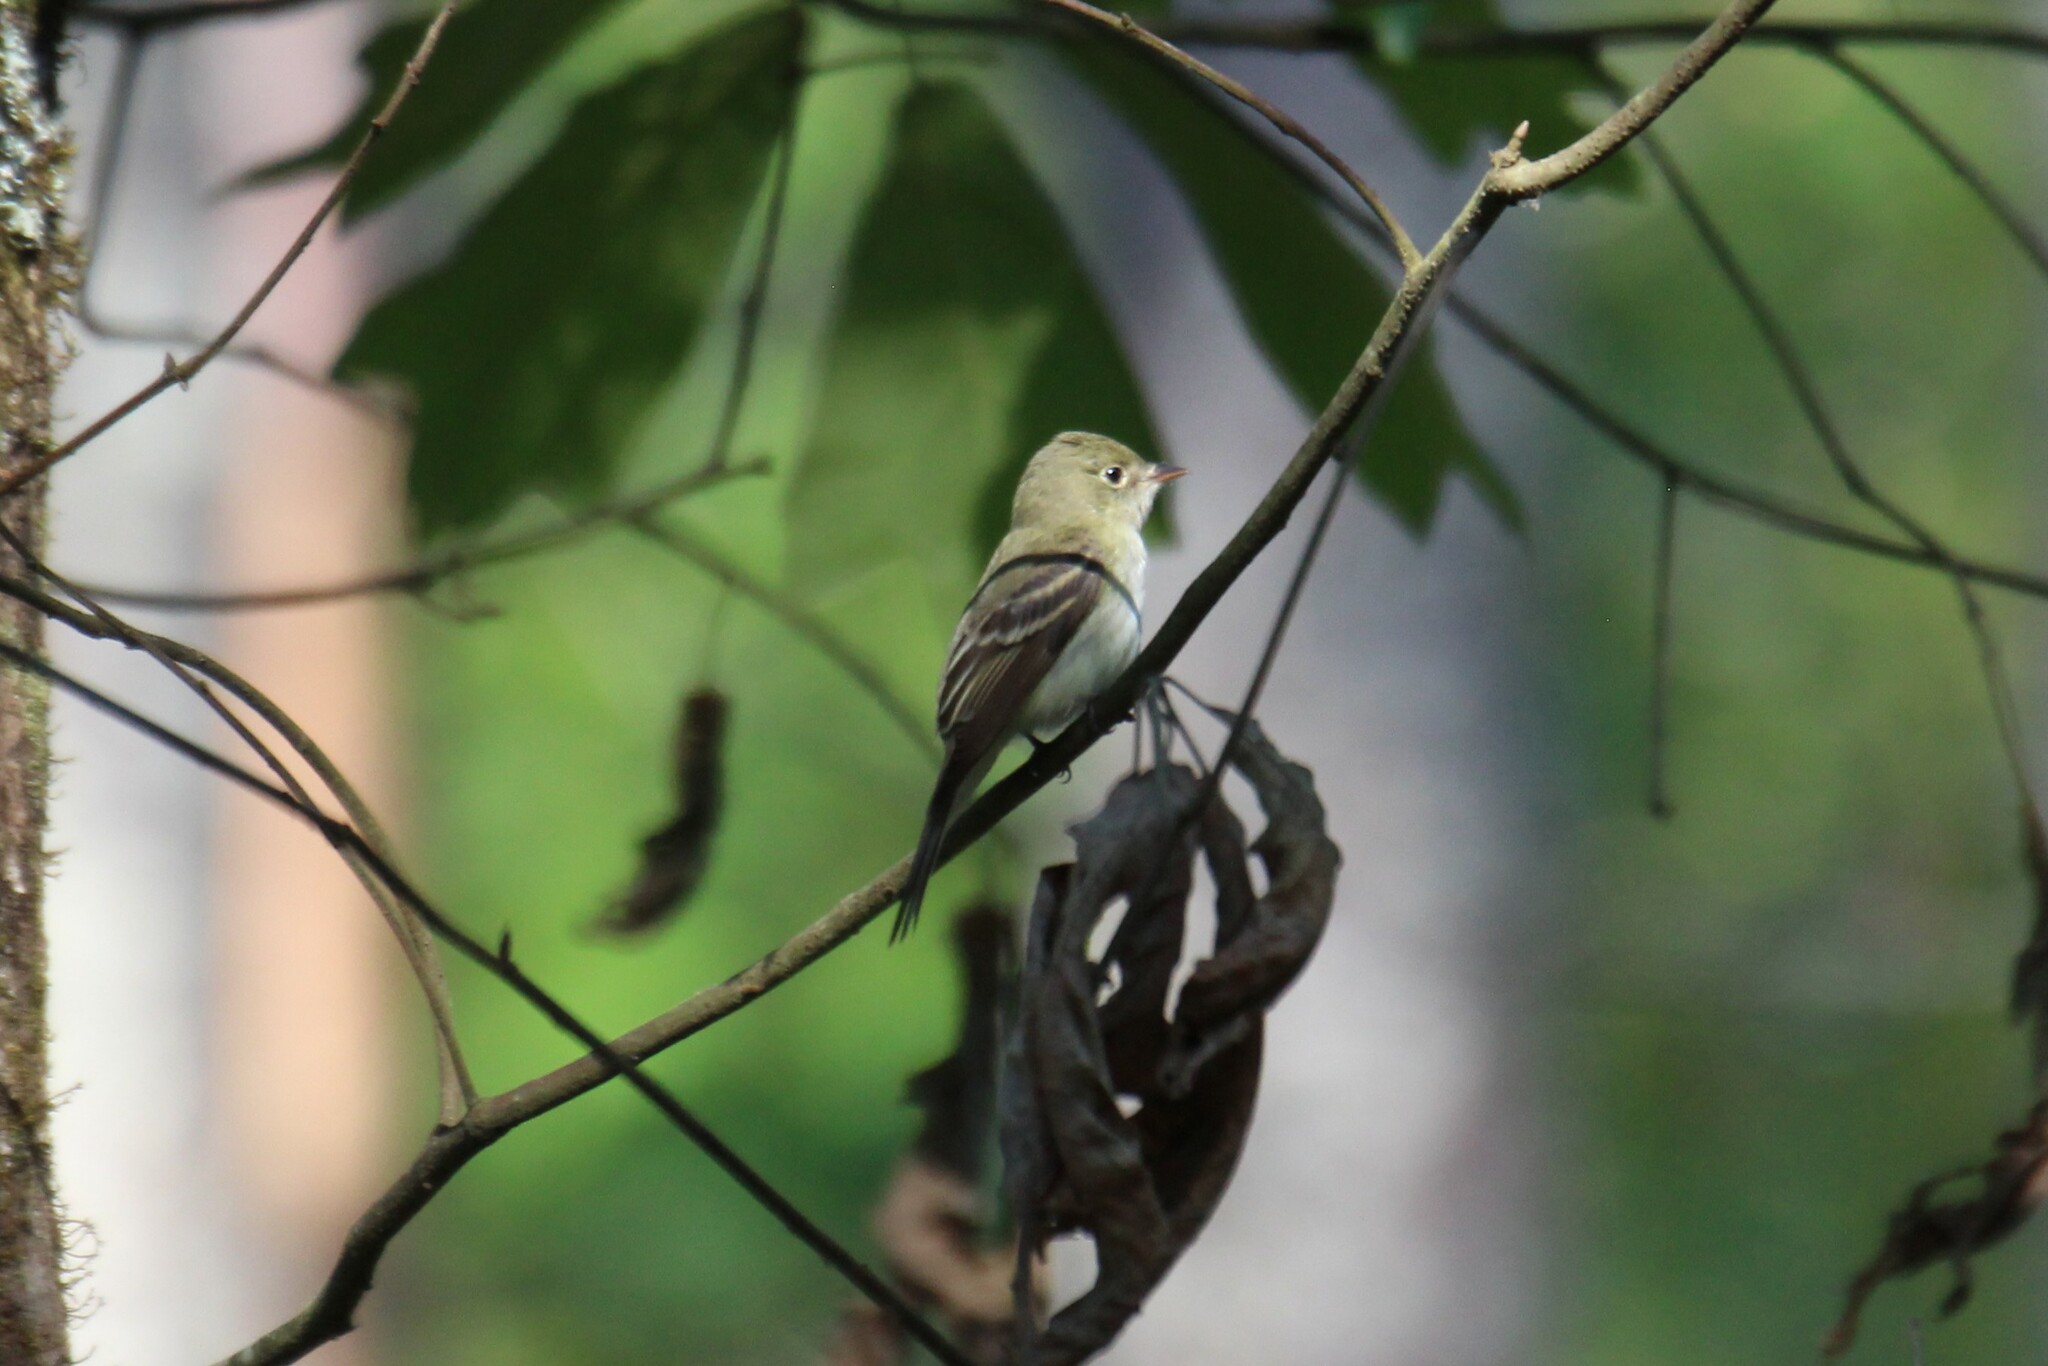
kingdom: Animalia
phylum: Chordata
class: Aves
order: Passeriformes
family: Tyrannidae
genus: Empidonax
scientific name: Empidonax virescens
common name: Acadian flycatcher
